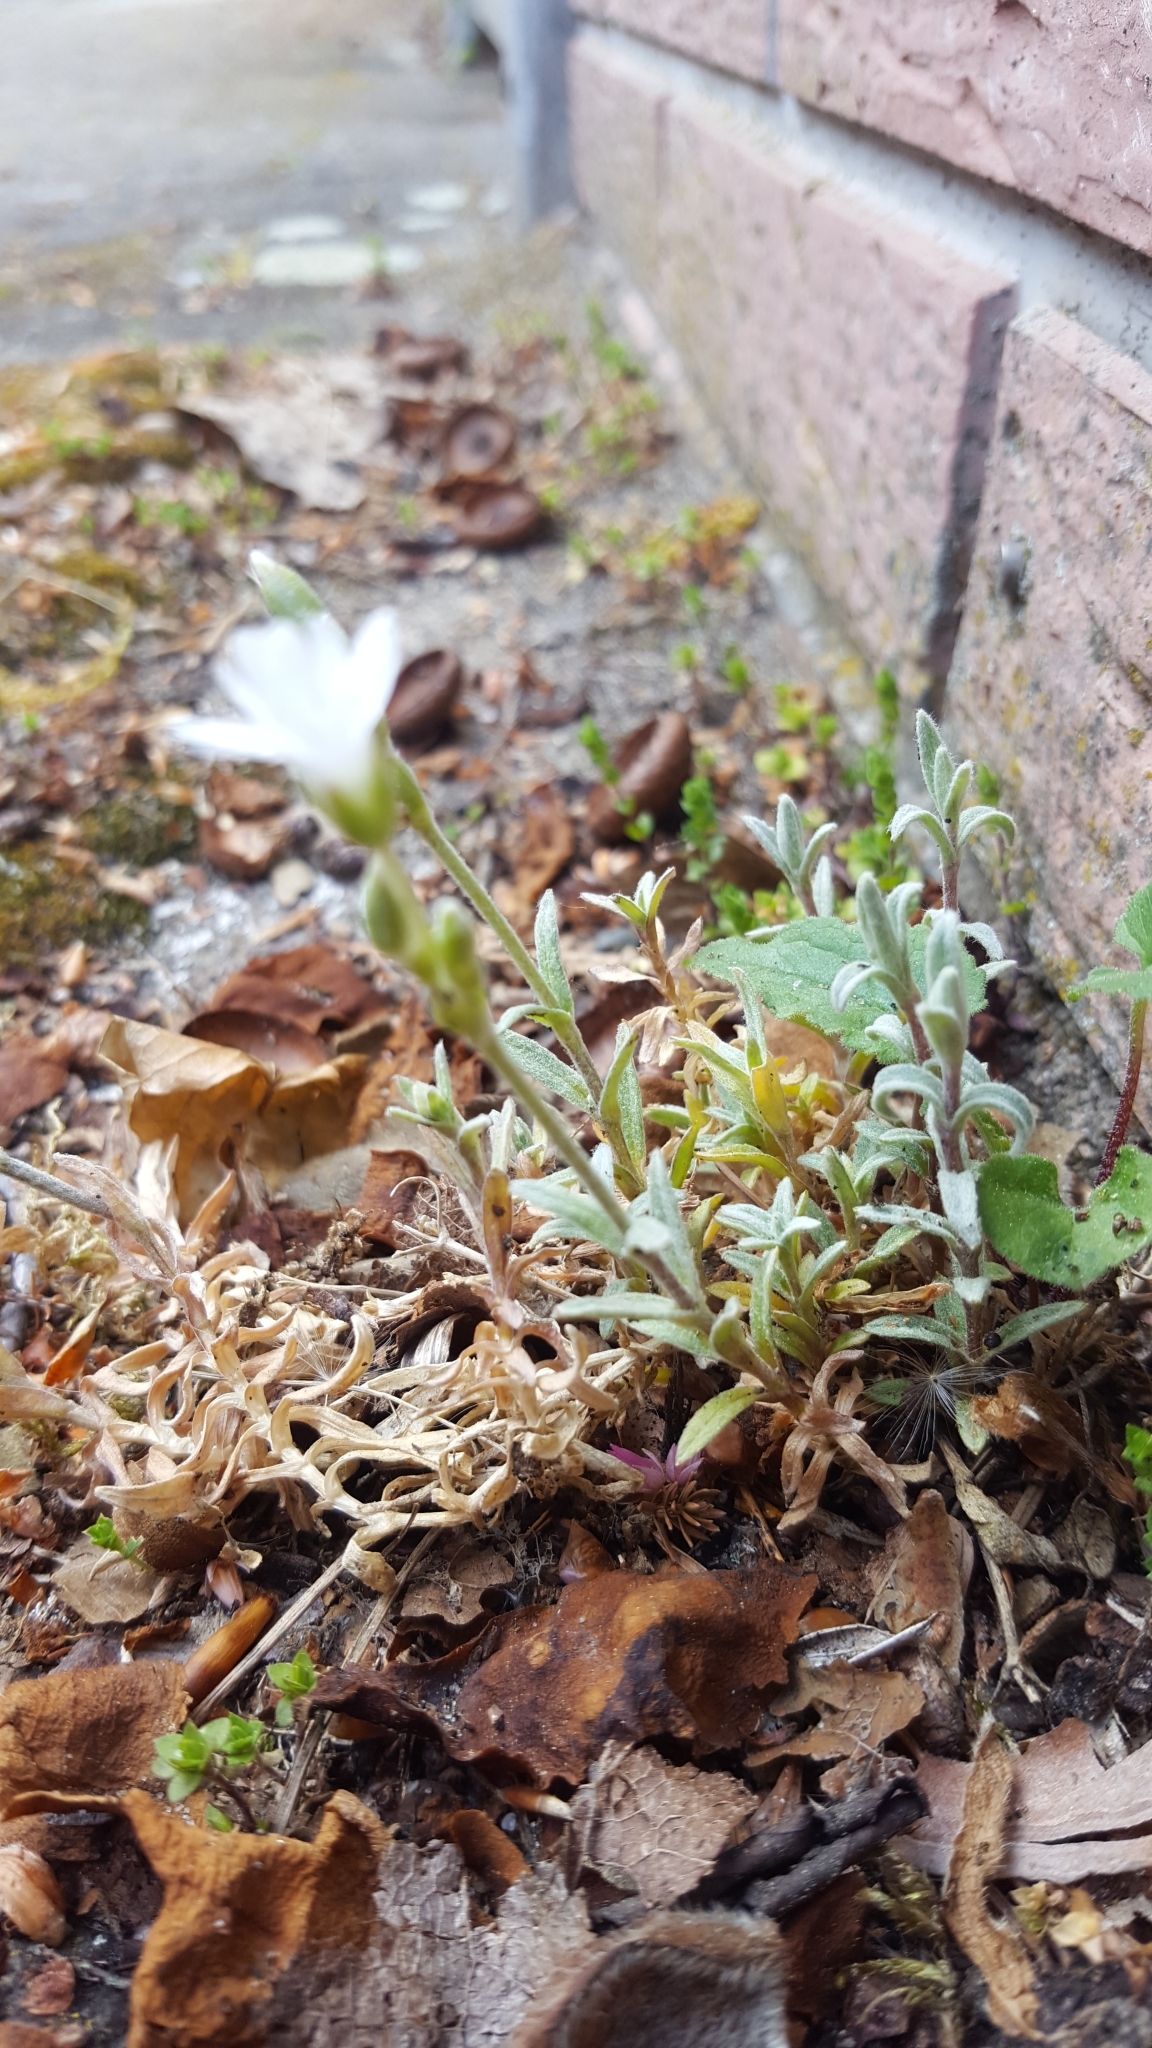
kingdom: Plantae
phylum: Tracheophyta
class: Magnoliopsida
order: Caryophyllales
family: Caryophyllaceae
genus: Cerastium
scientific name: Cerastium tomentosum
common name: Snow-in-summer
